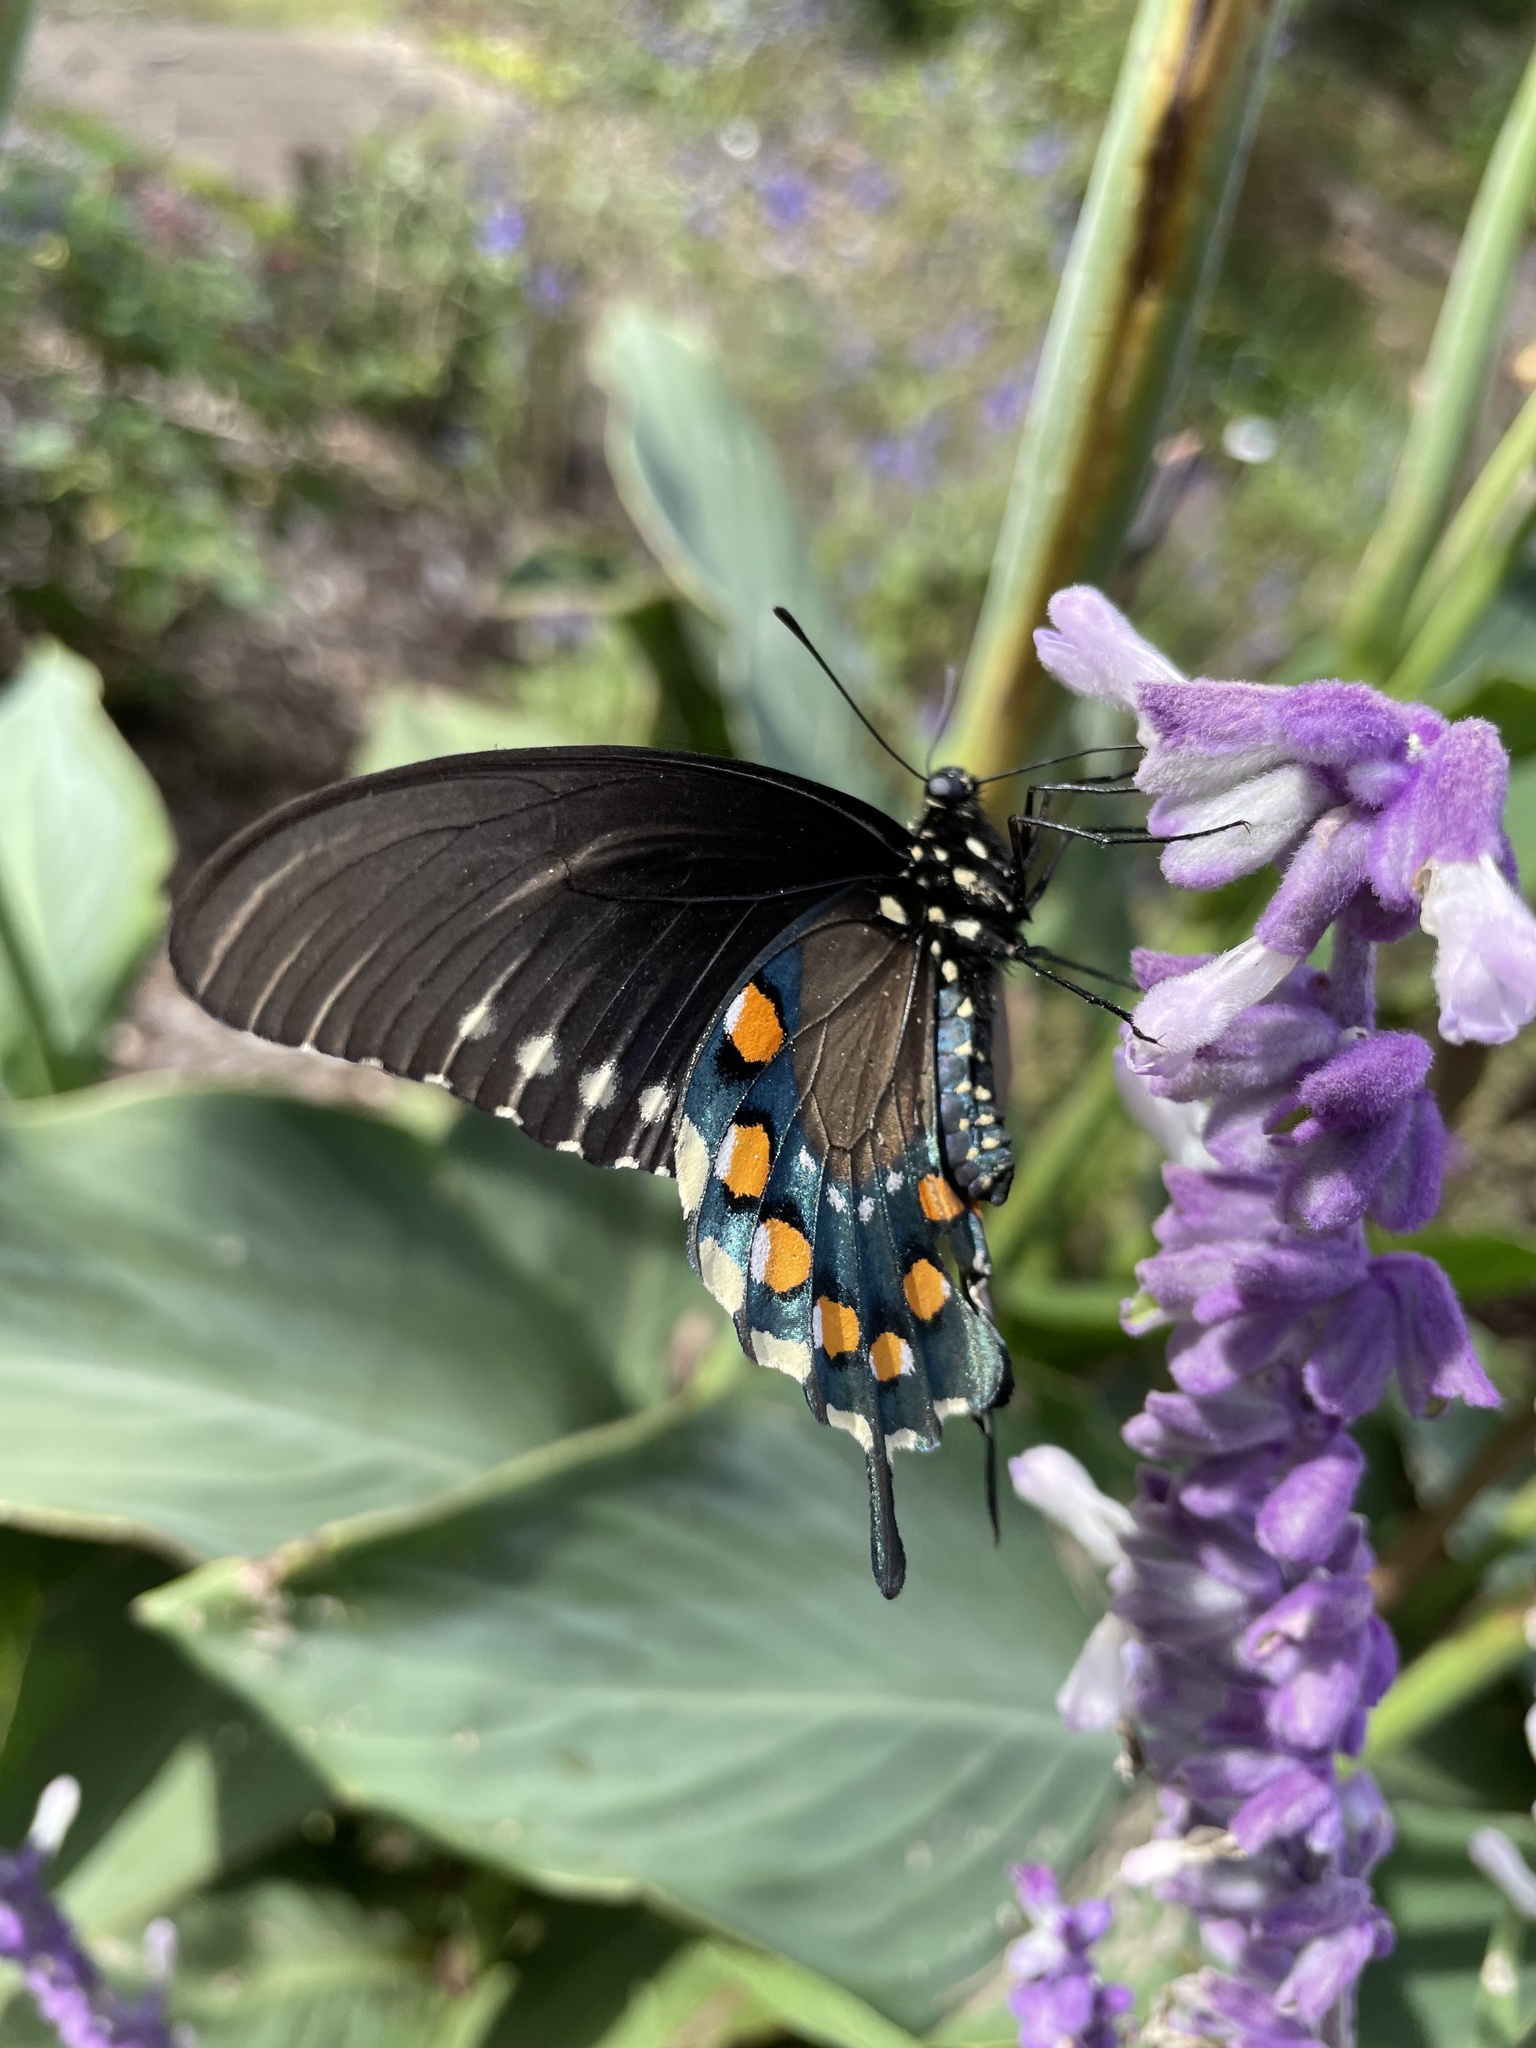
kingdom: Animalia
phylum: Arthropoda
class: Insecta
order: Lepidoptera
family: Papilionidae
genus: Battus
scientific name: Battus philenor
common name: Pipevine swallowtail
